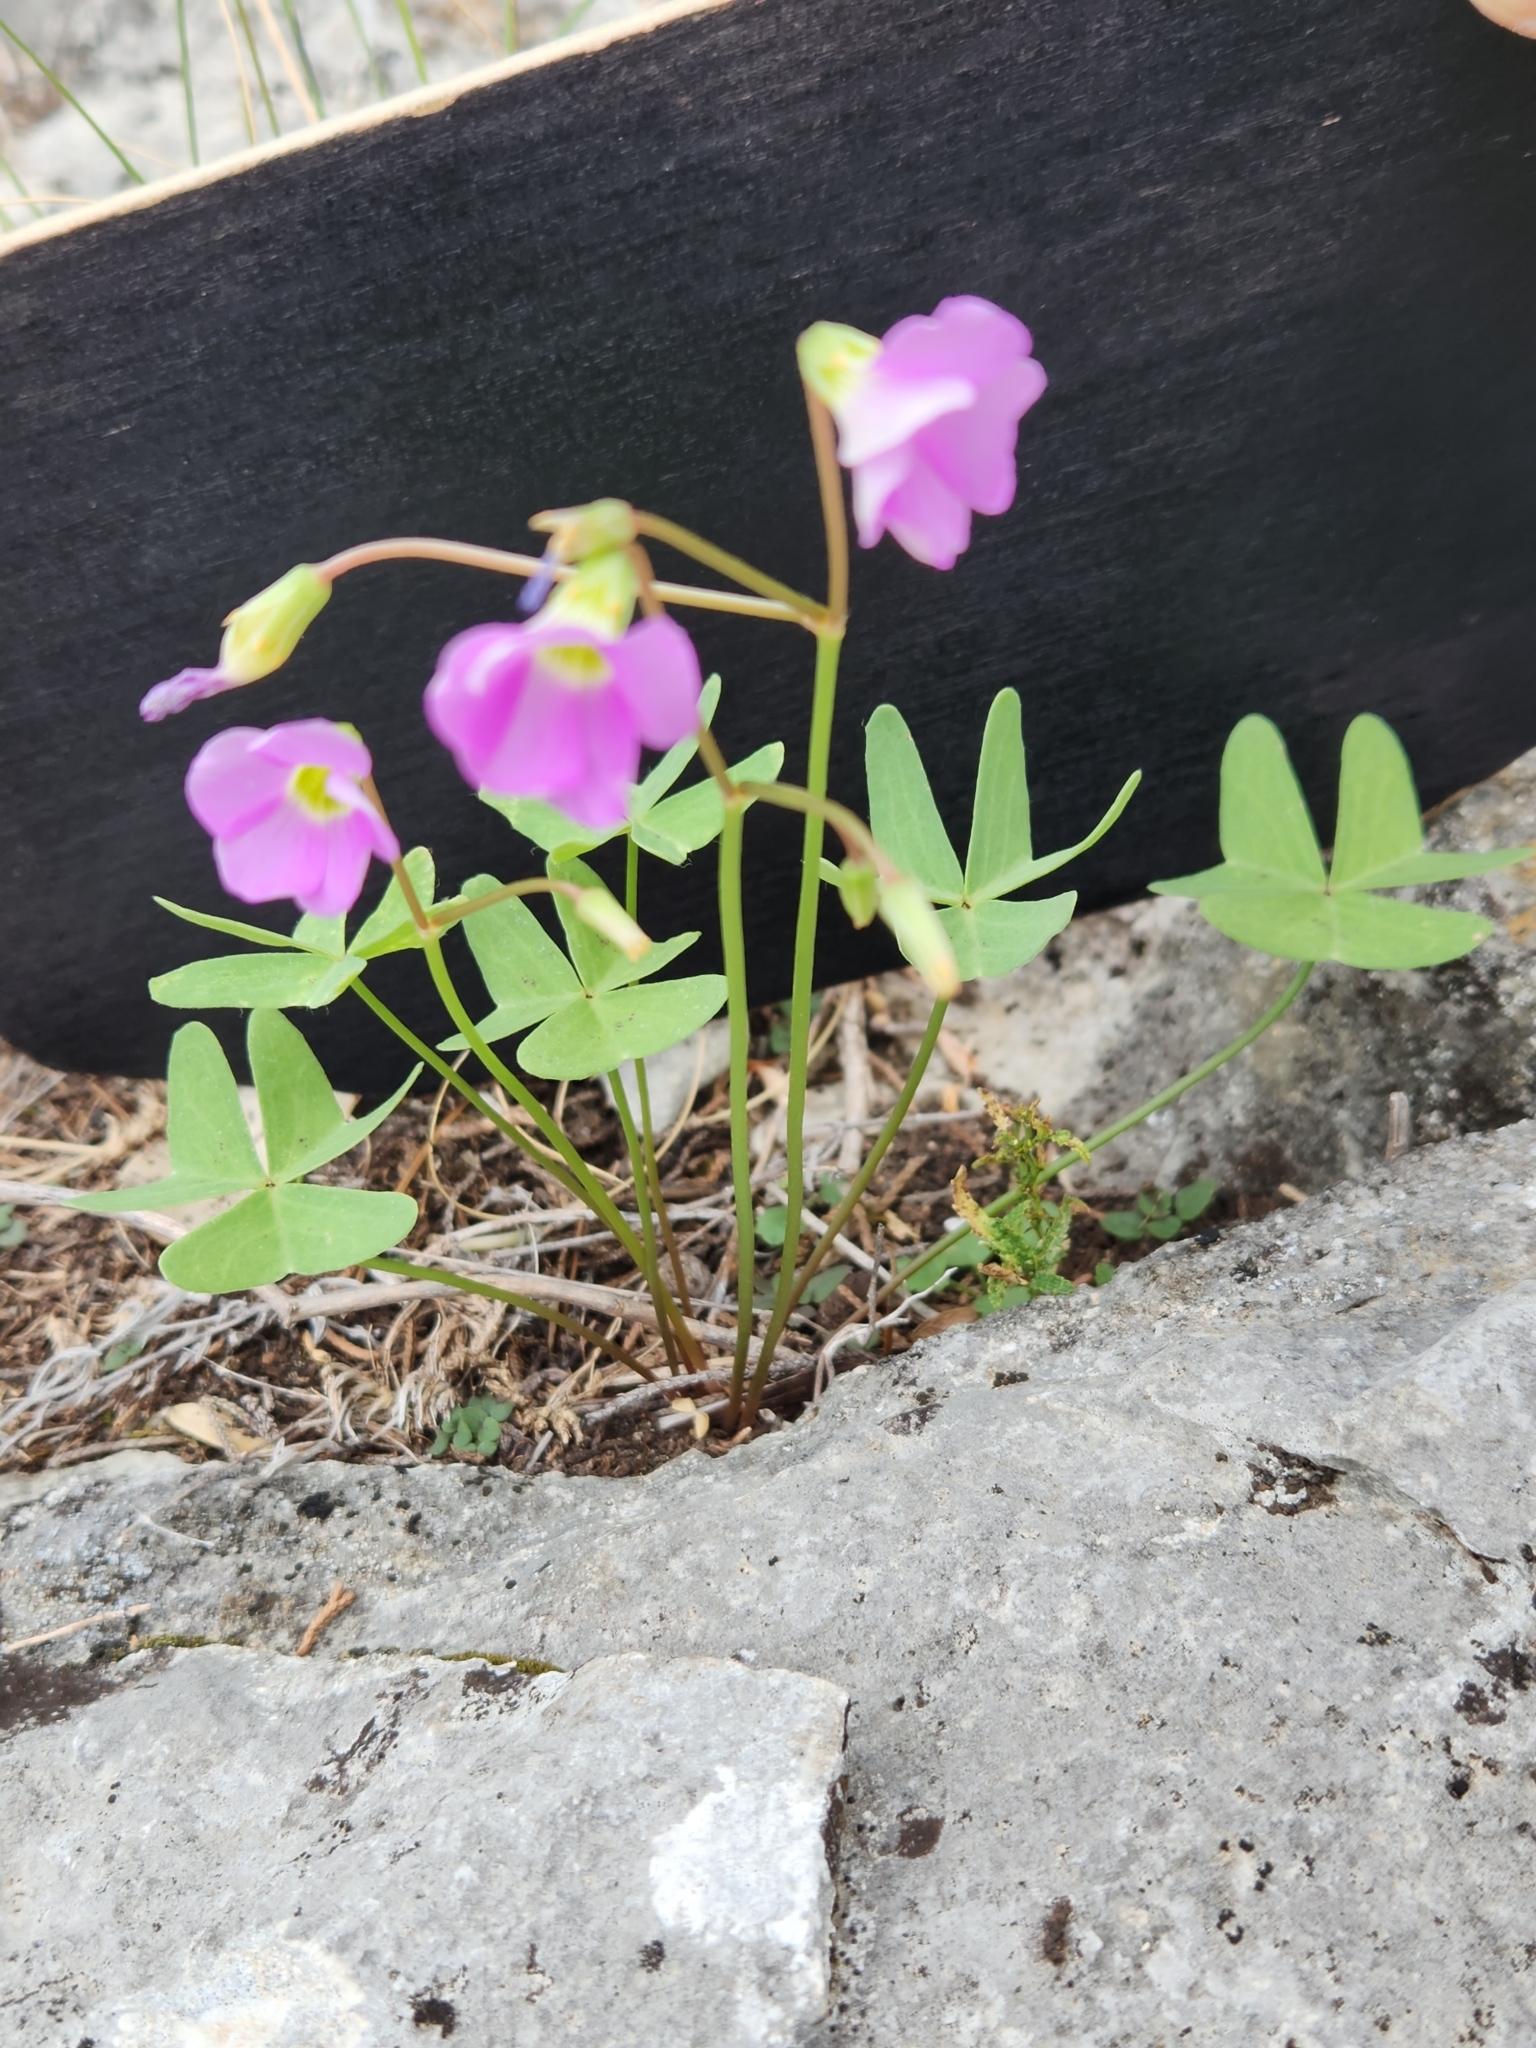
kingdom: Plantae
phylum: Tracheophyta
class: Magnoliopsida
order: Oxalidales
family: Oxalidaceae
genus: Oxalis
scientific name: Oxalis drummondii
